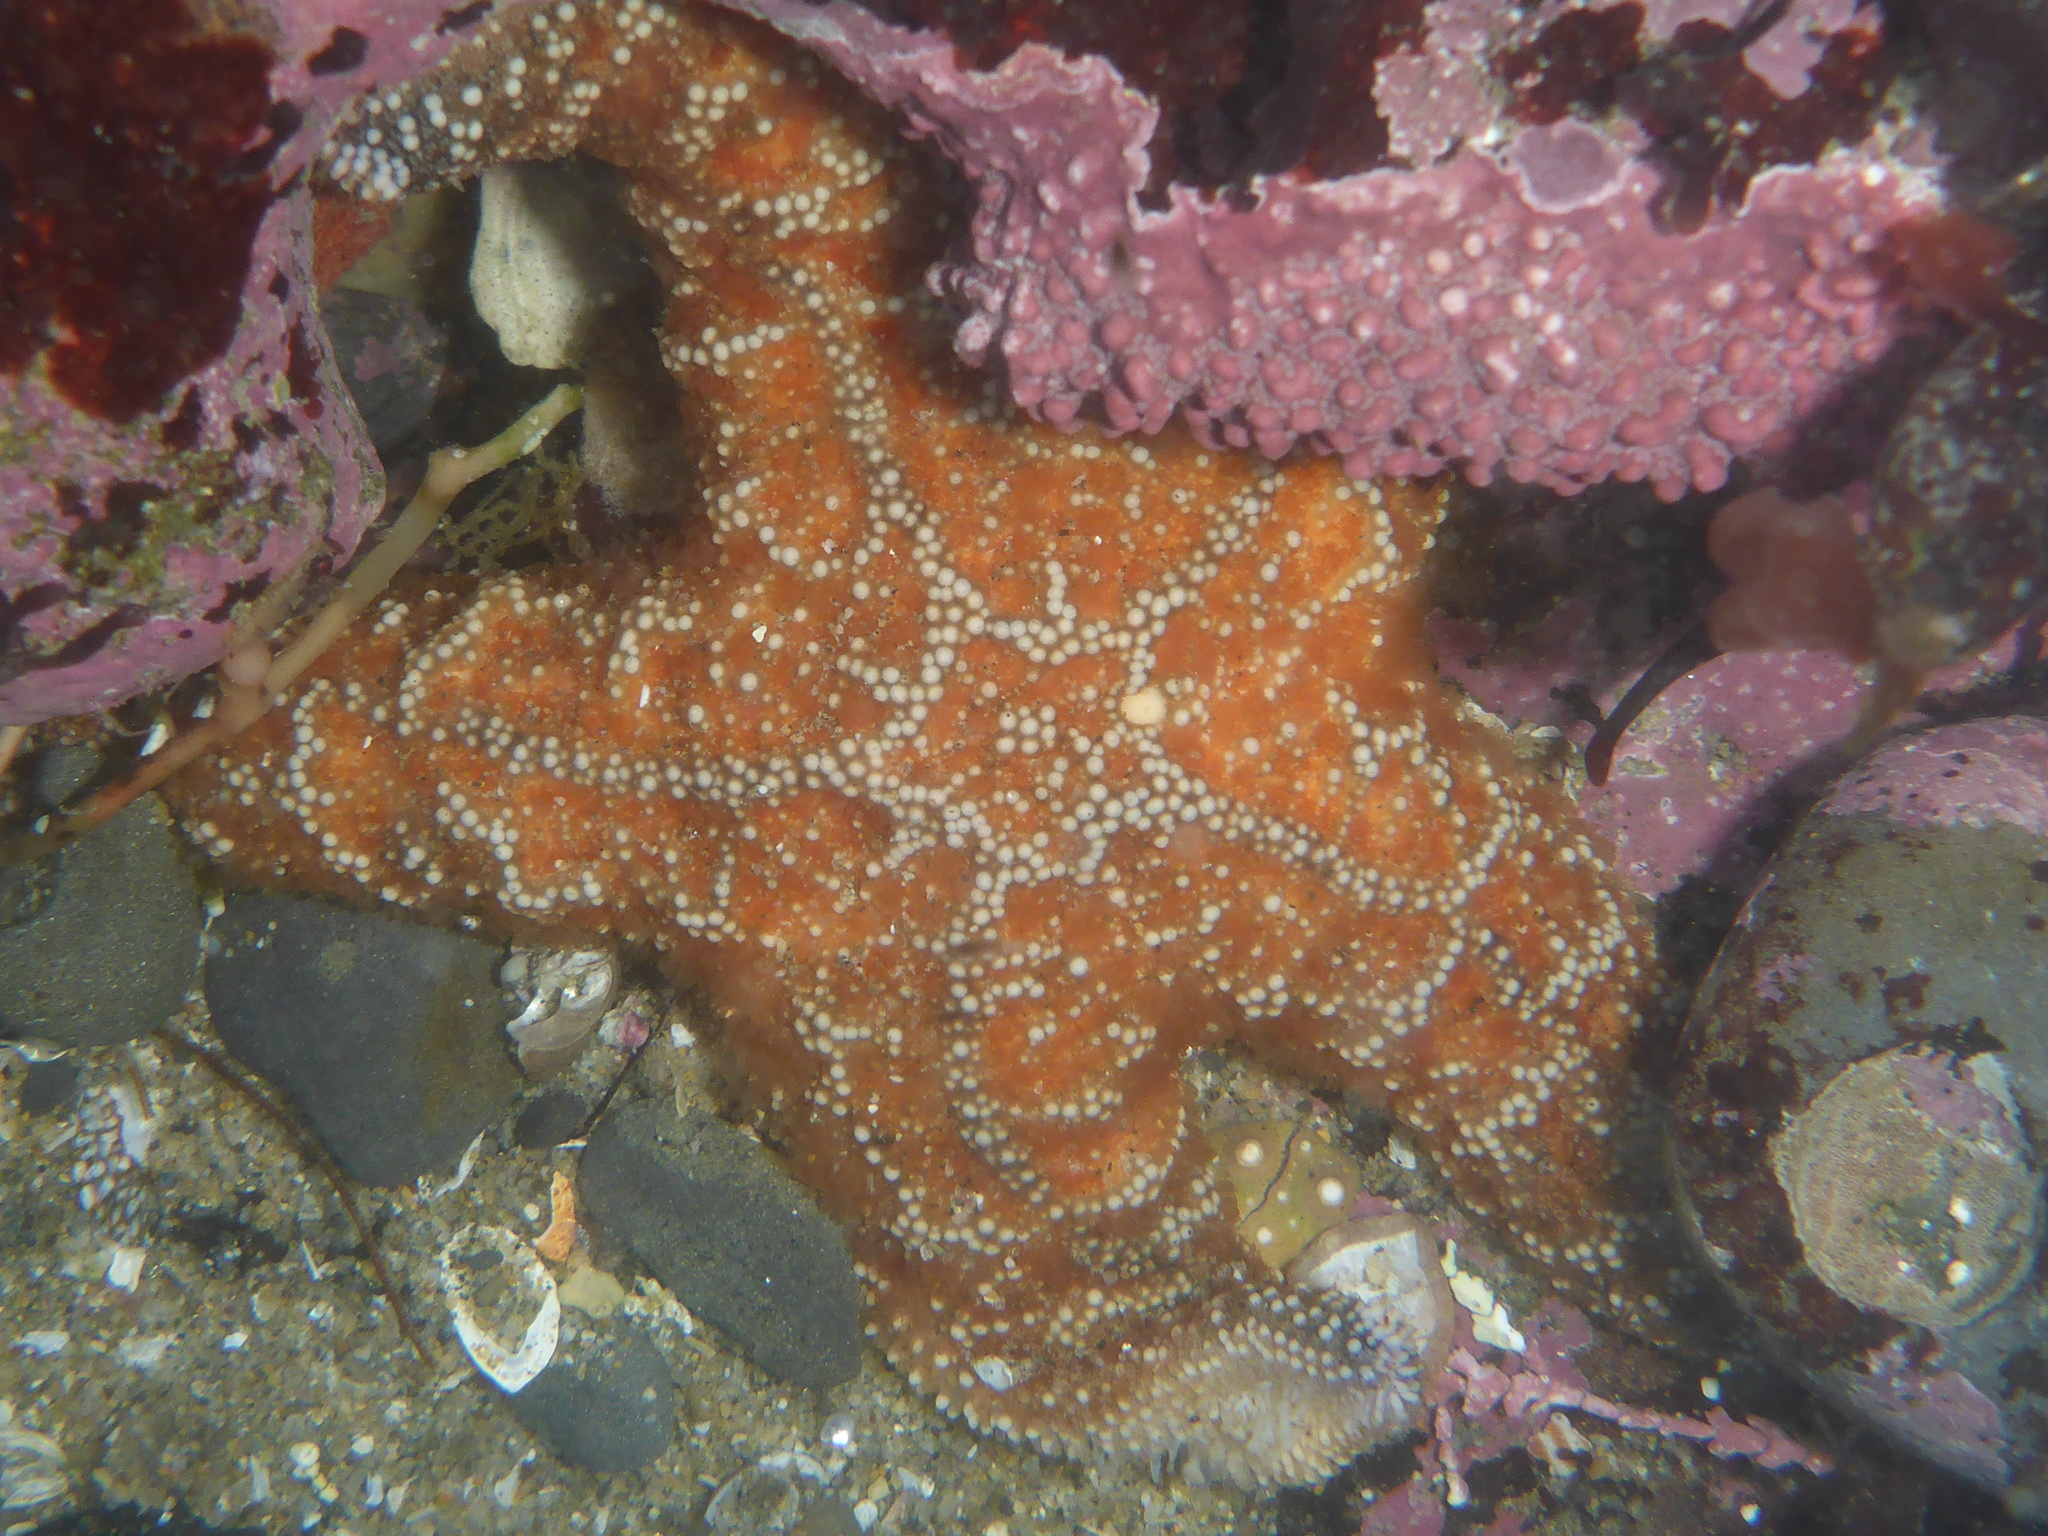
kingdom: Animalia
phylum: Echinodermata
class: Asteroidea
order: Forcipulatida
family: Asteriidae
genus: Pisaster
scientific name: Pisaster ochraceus
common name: Ochre stars
